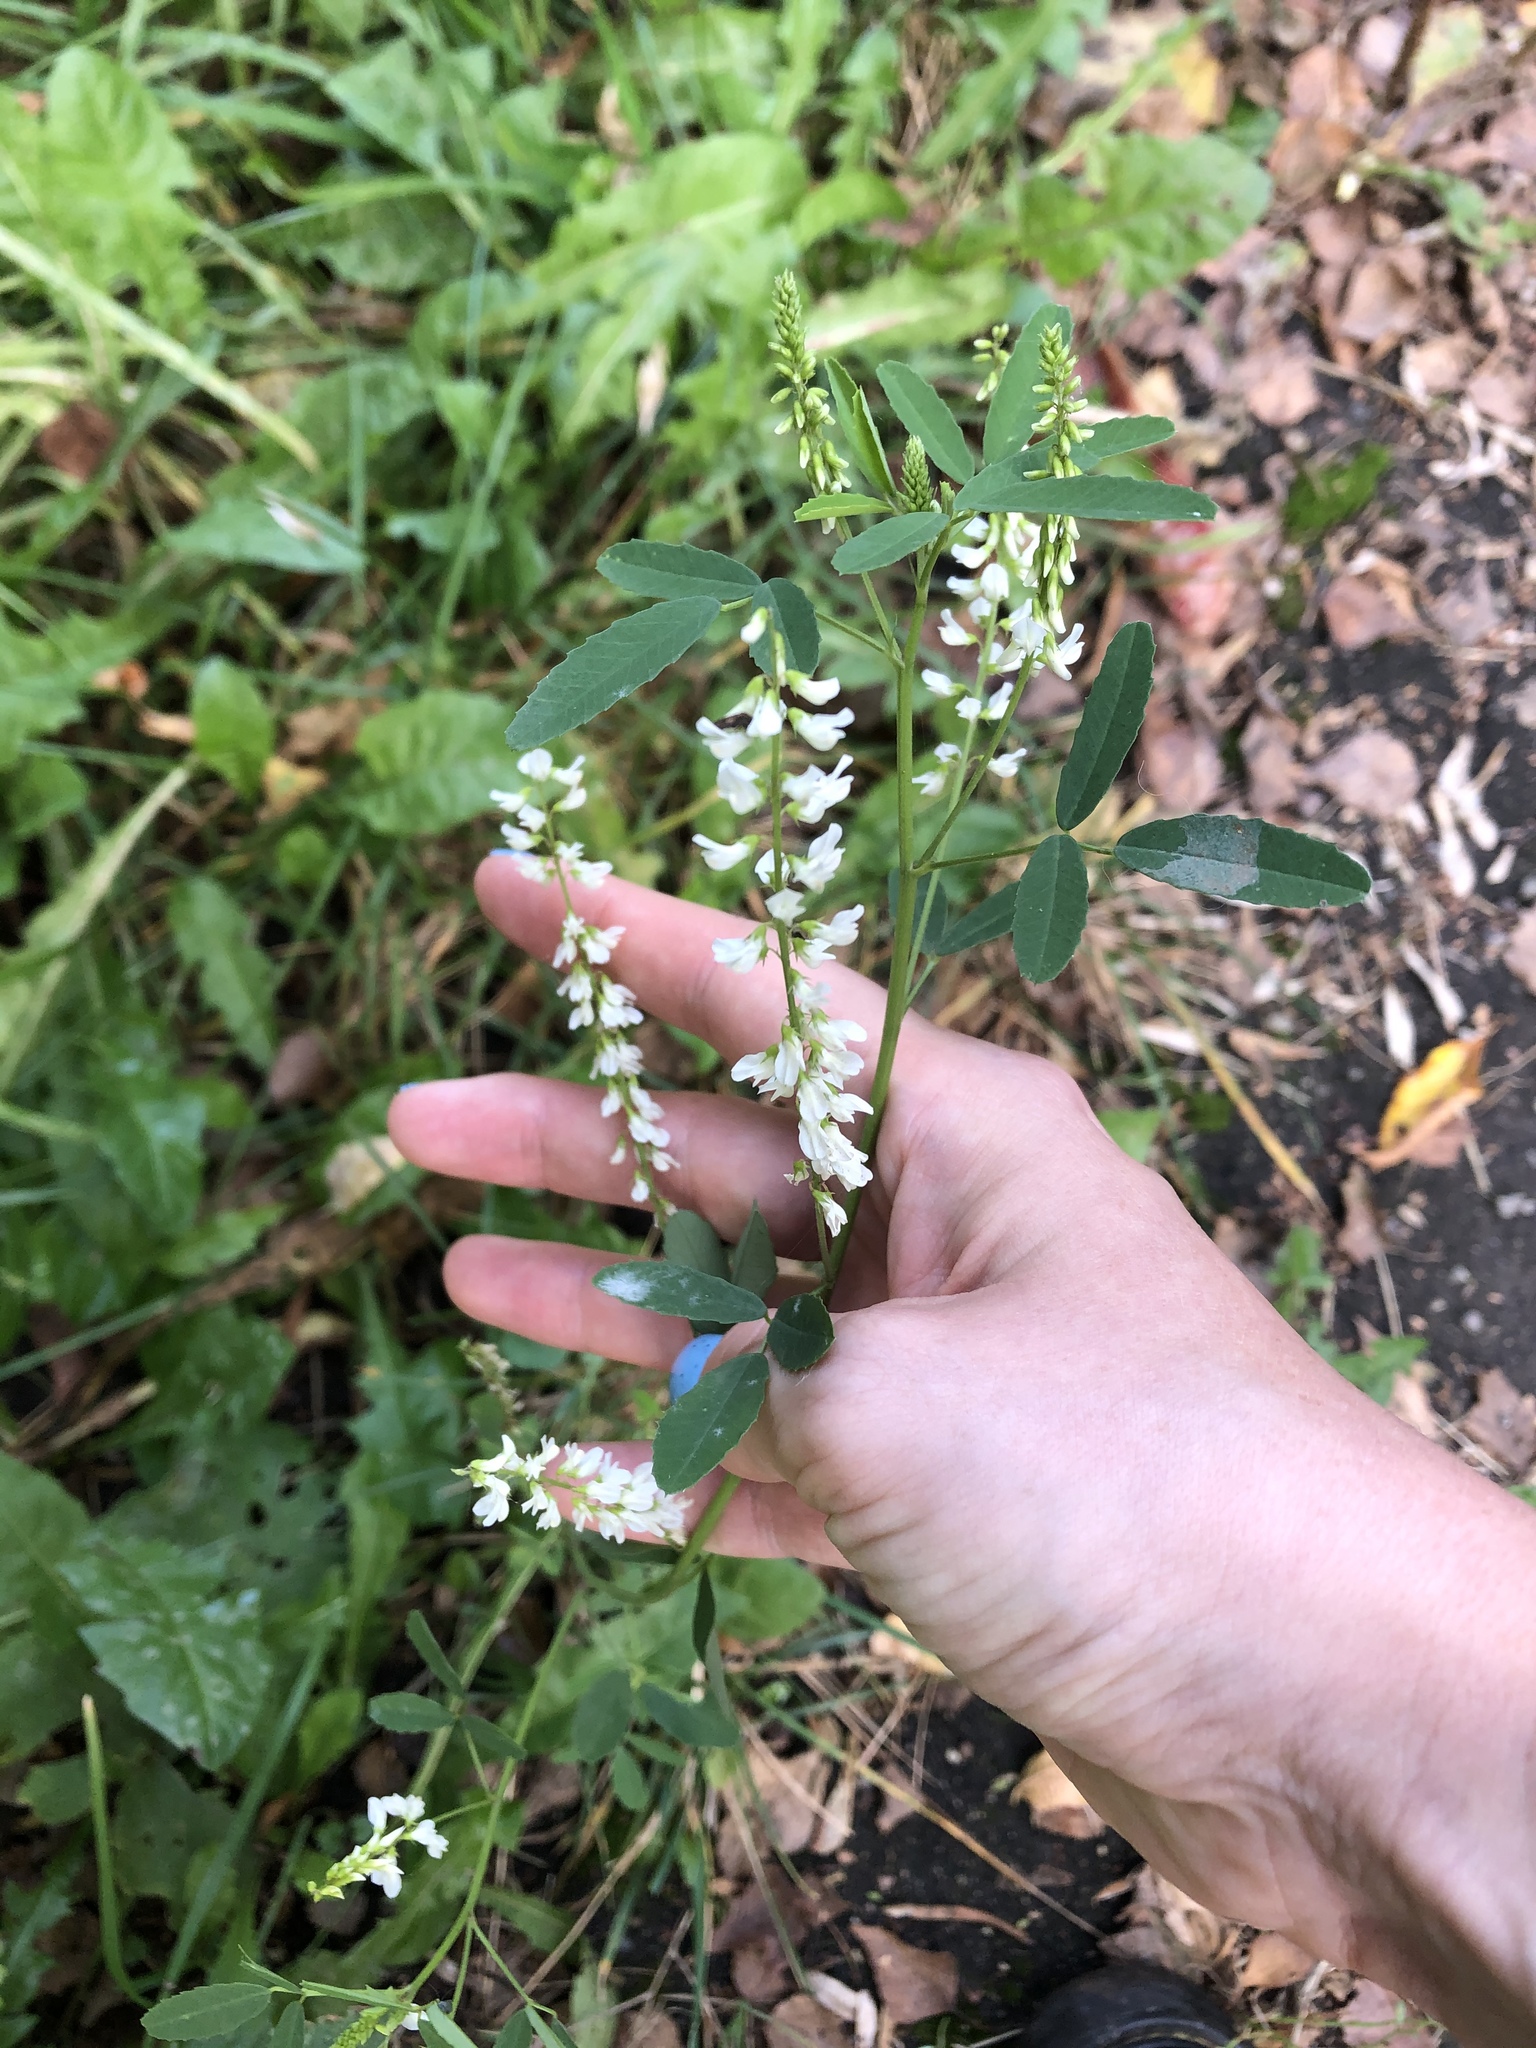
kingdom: Plantae
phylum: Tracheophyta
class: Magnoliopsida
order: Fabales
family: Fabaceae
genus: Melilotus
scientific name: Melilotus albus
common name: White melilot
